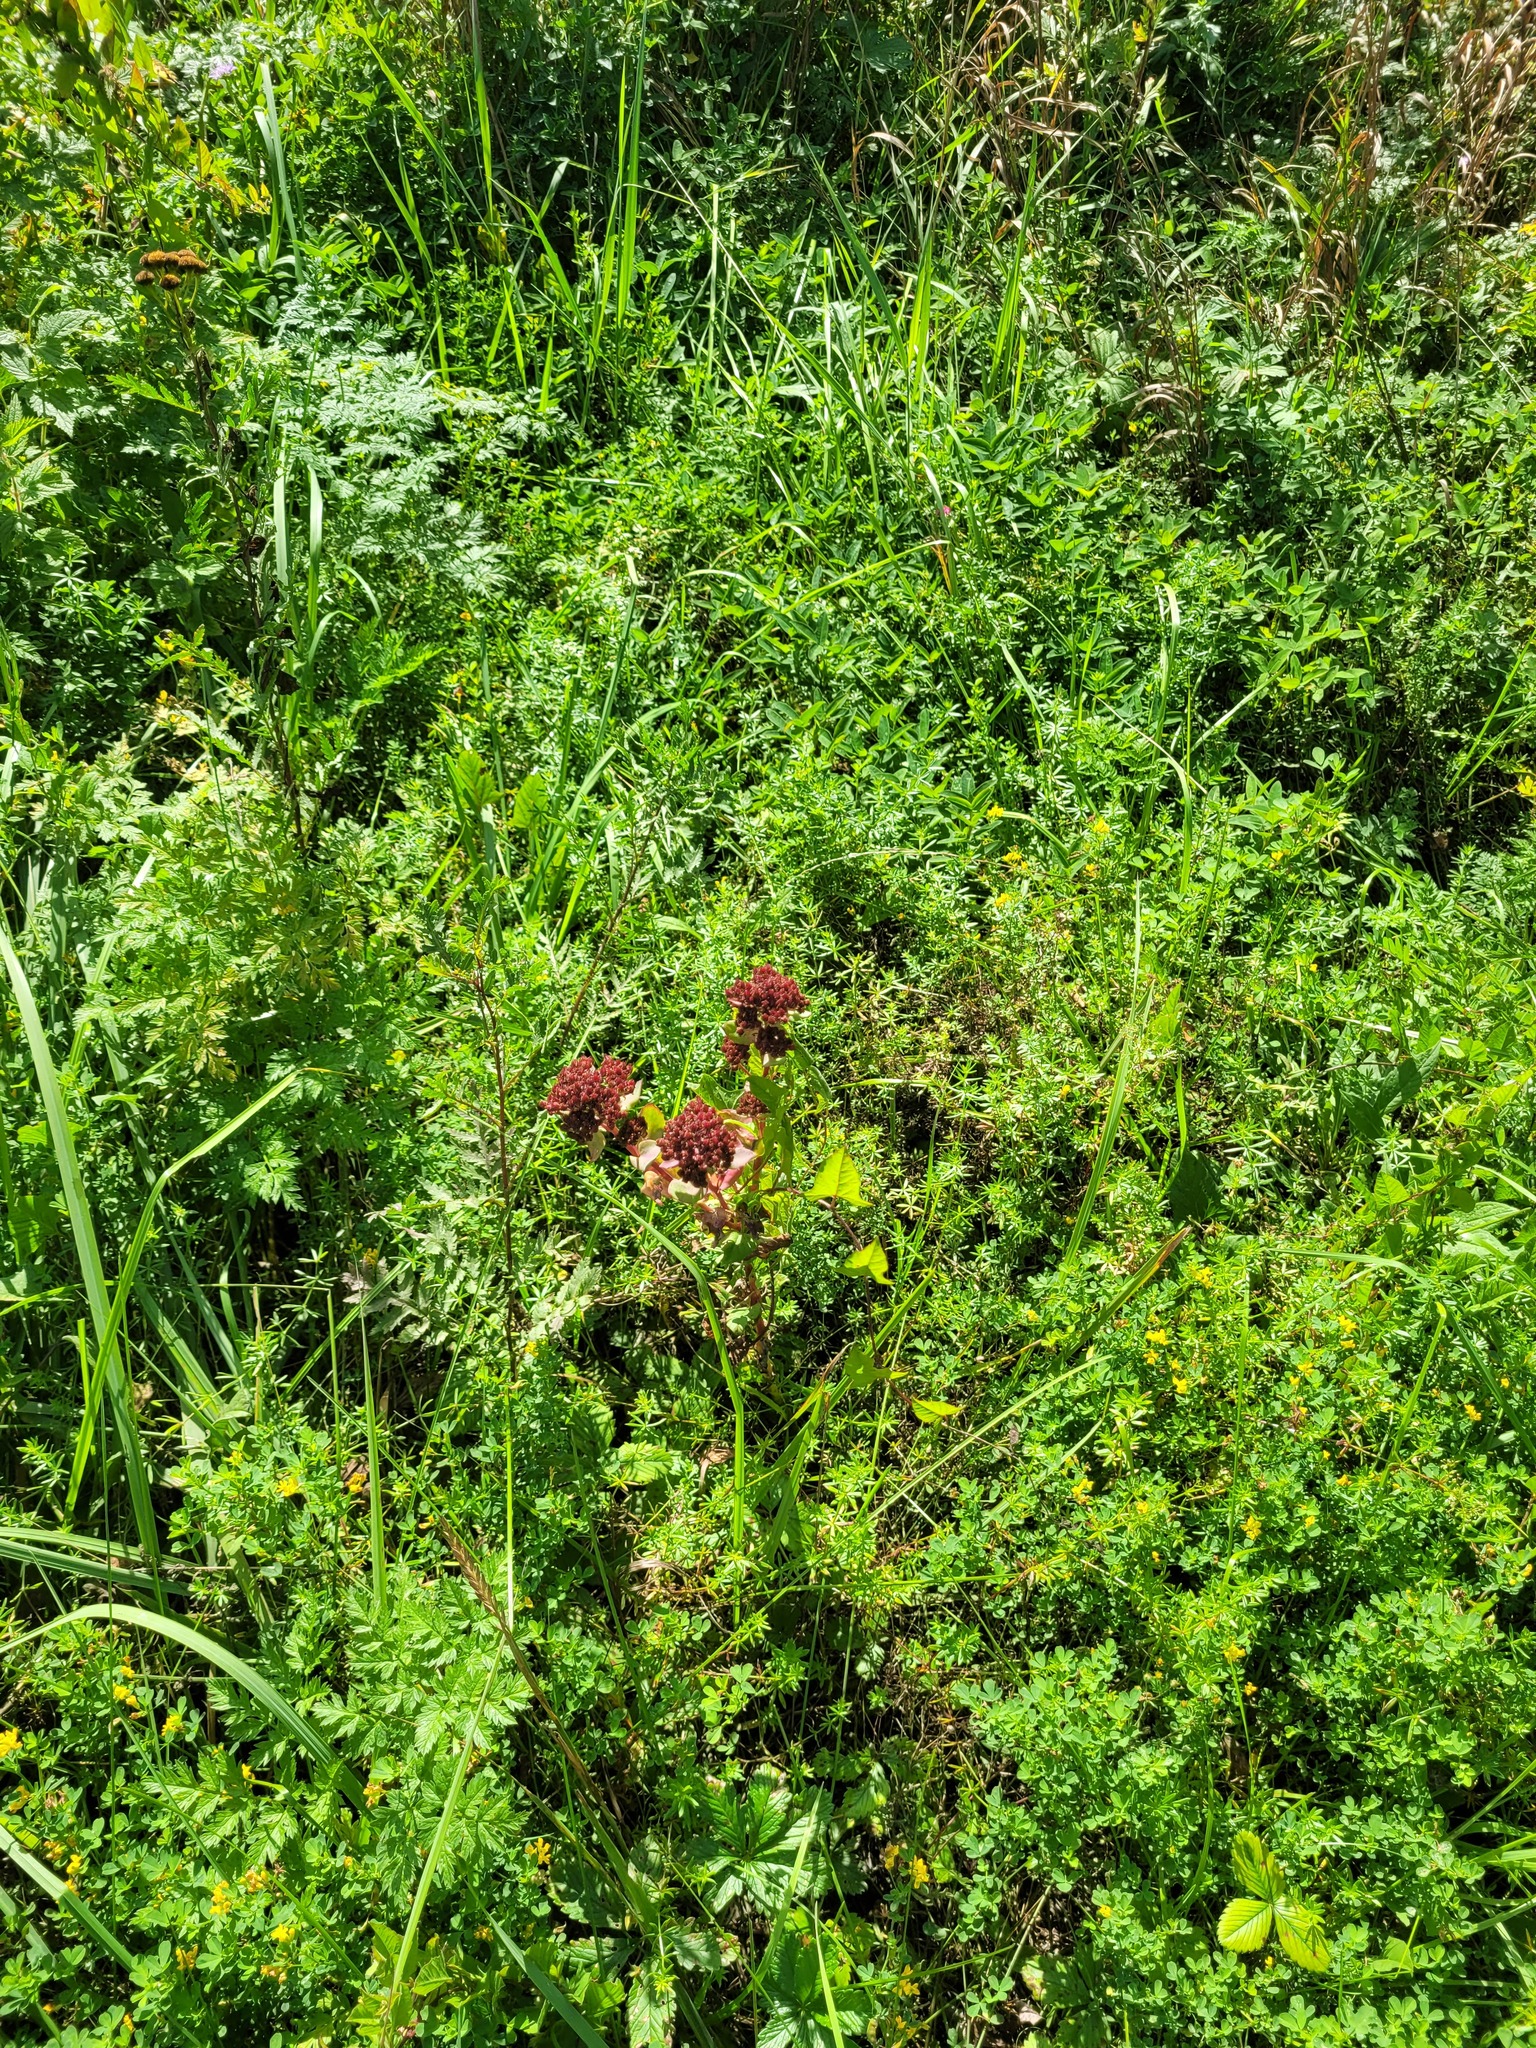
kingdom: Plantae
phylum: Tracheophyta
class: Magnoliopsida
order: Saxifragales
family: Crassulaceae
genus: Hylotelephium
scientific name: Hylotelephium telephium
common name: Live-forever
